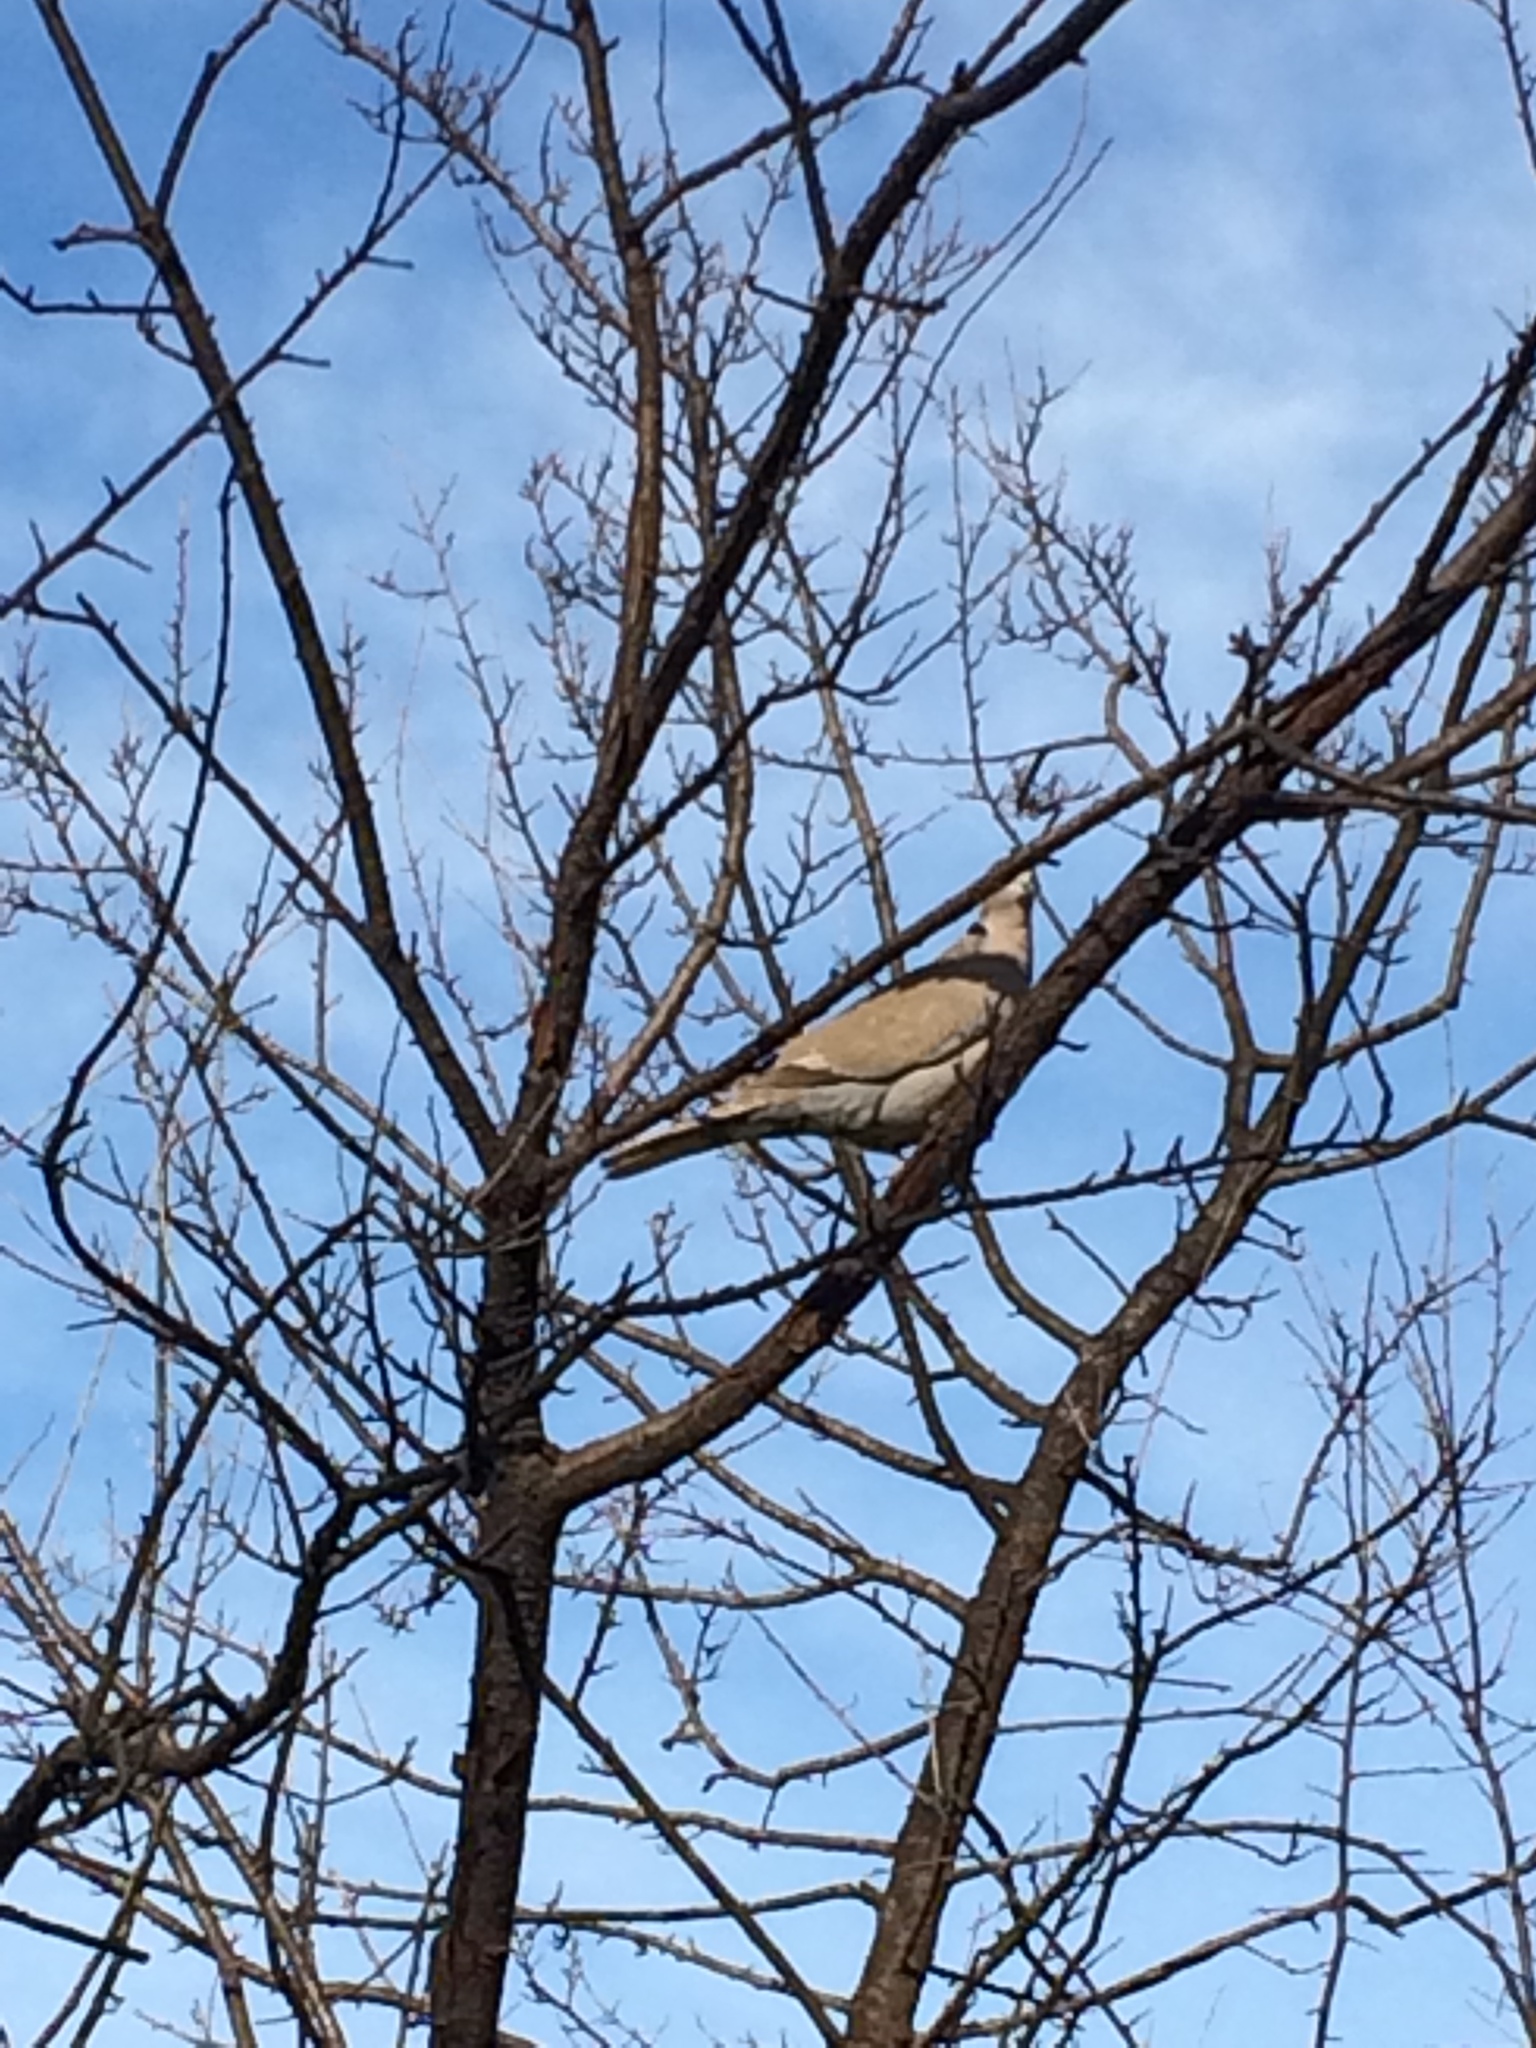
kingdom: Animalia
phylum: Chordata
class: Aves
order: Columbiformes
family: Columbidae
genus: Streptopelia
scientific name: Streptopelia decaocto
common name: Eurasian collared dove
